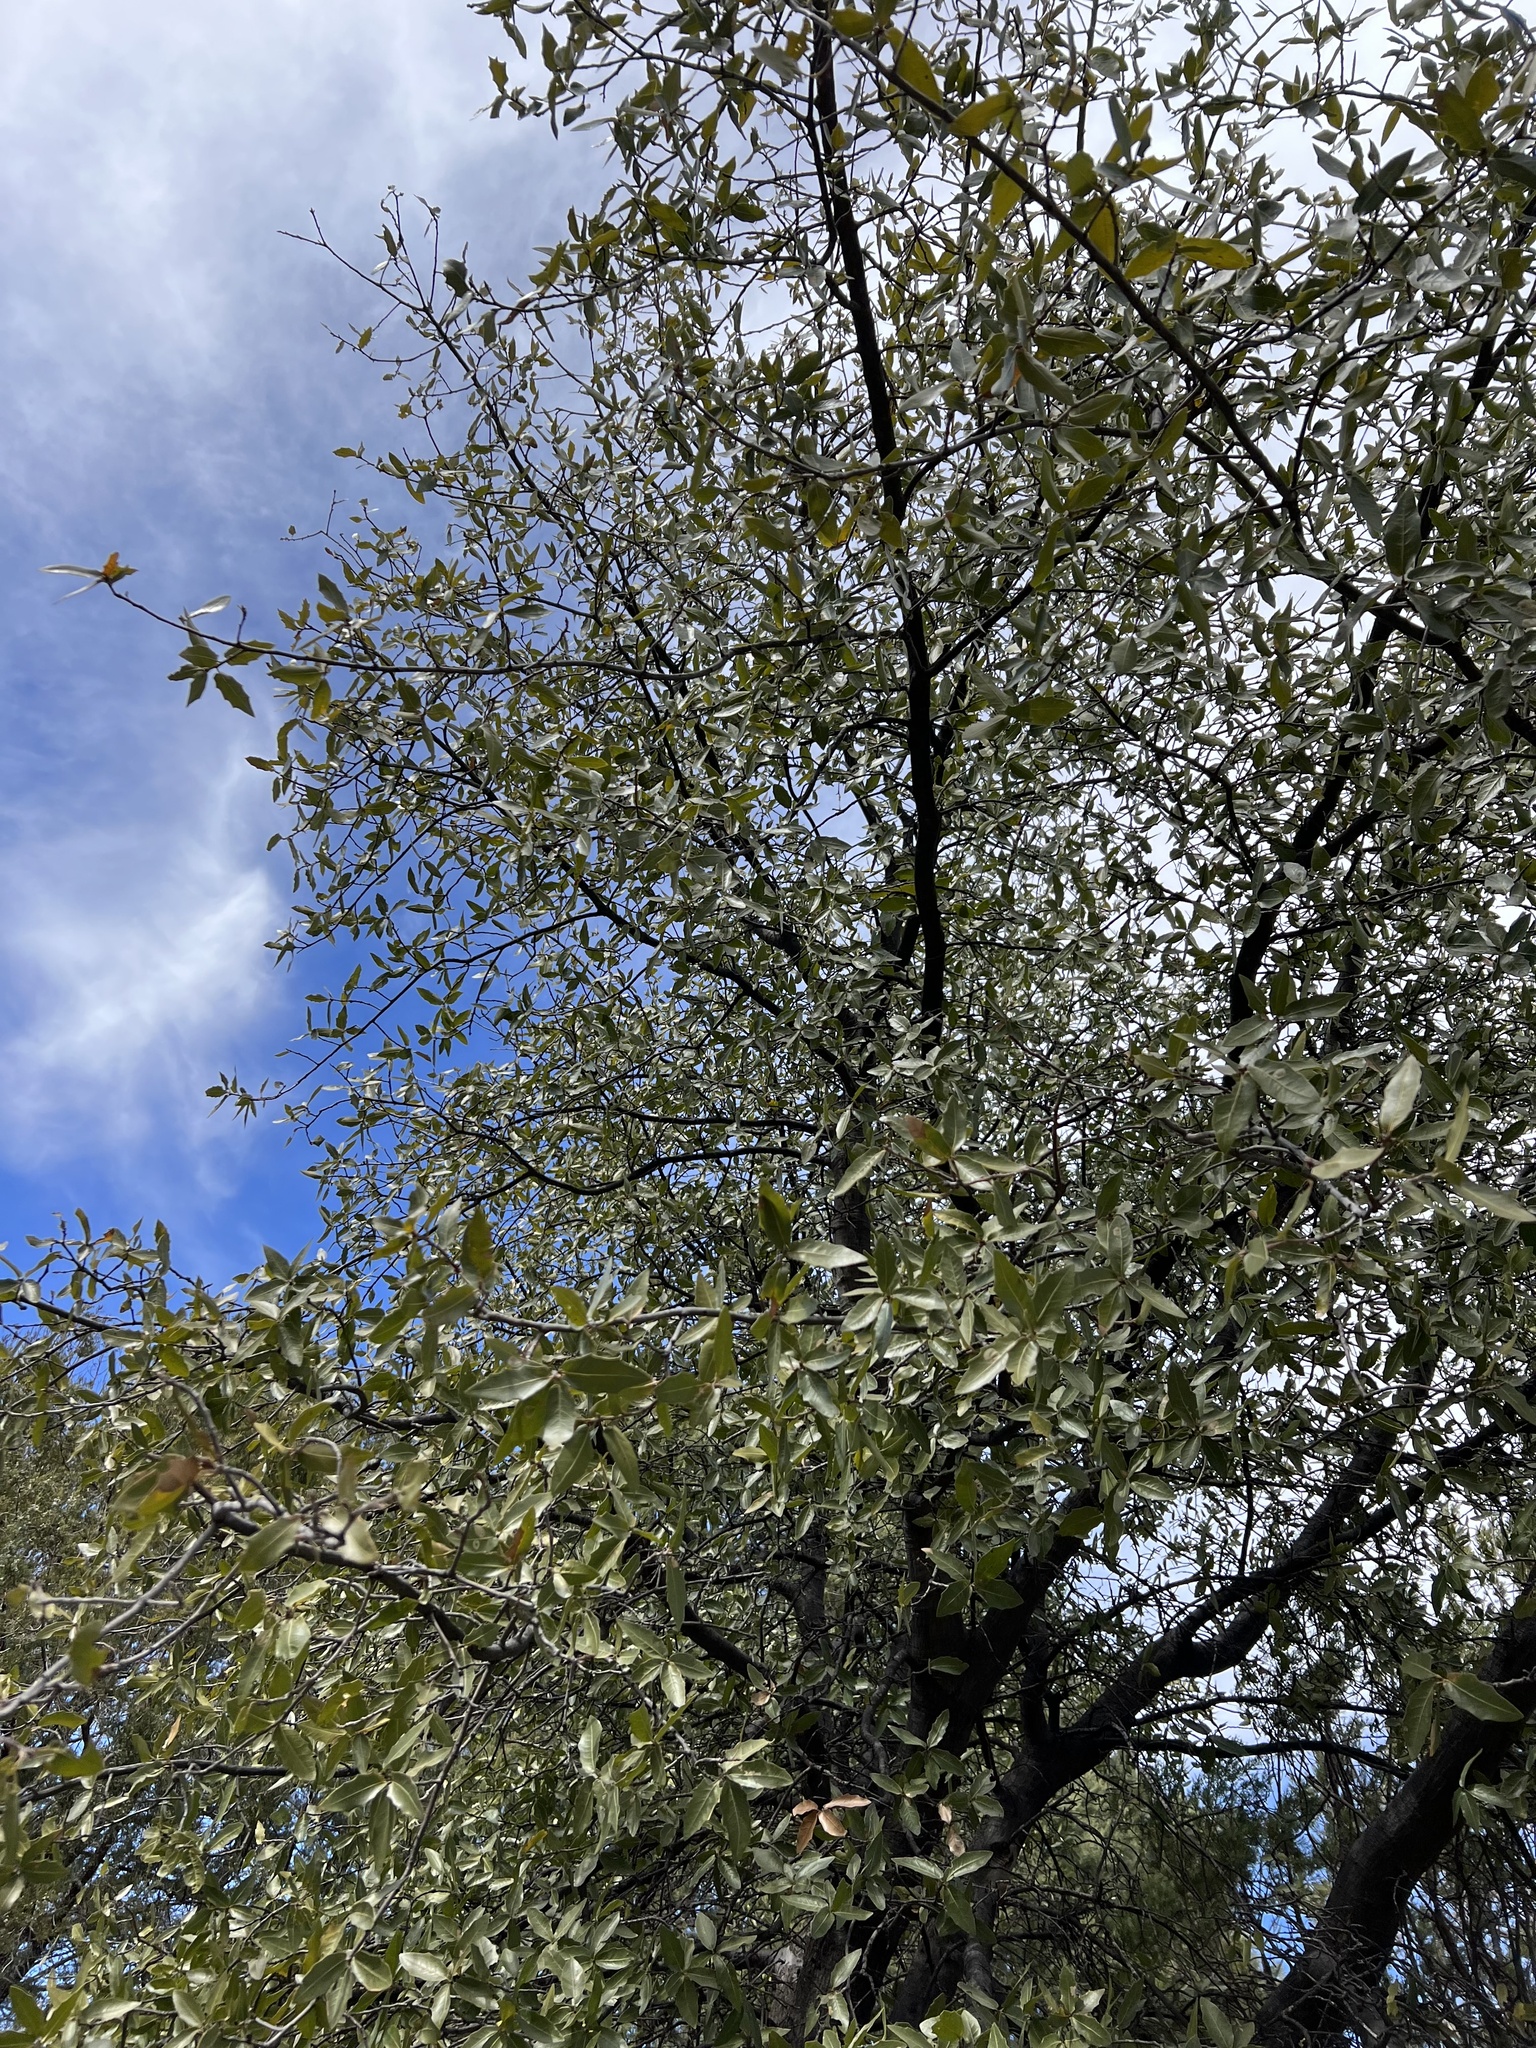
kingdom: Plantae
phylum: Tracheophyta
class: Magnoliopsida
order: Fagales
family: Fagaceae
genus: Quercus
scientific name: Quercus emoryi
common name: Emory oak
